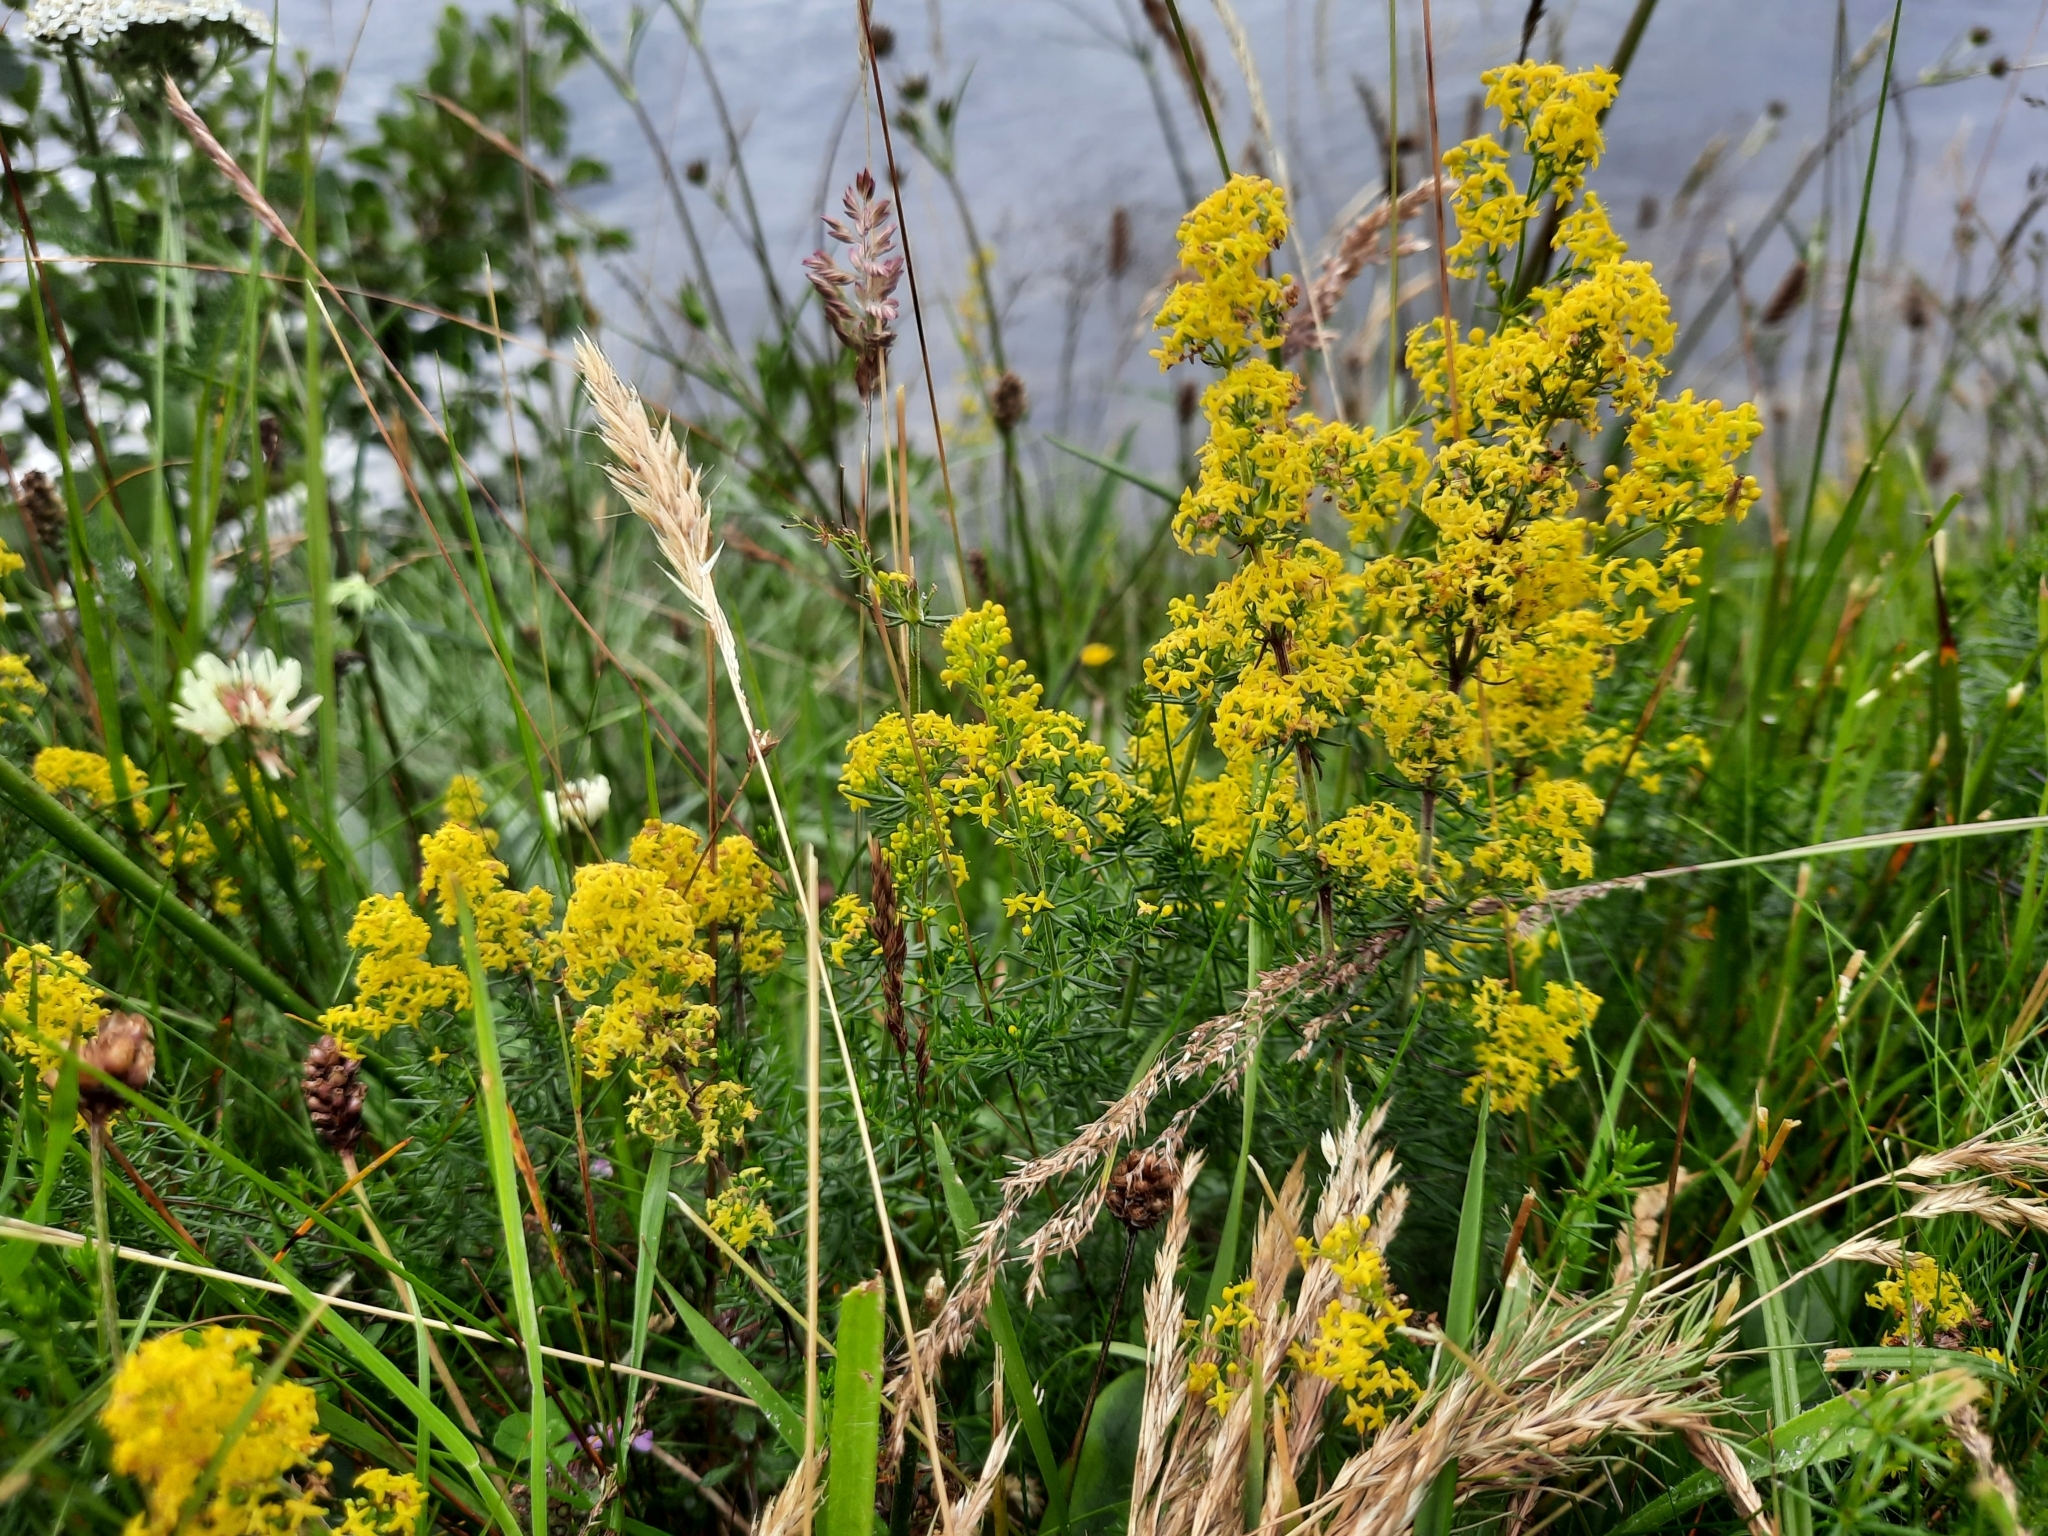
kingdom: Plantae
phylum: Tracheophyta
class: Magnoliopsida
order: Gentianales
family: Rubiaceae
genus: Galium
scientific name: Galium verum
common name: Lady's bedstraw
